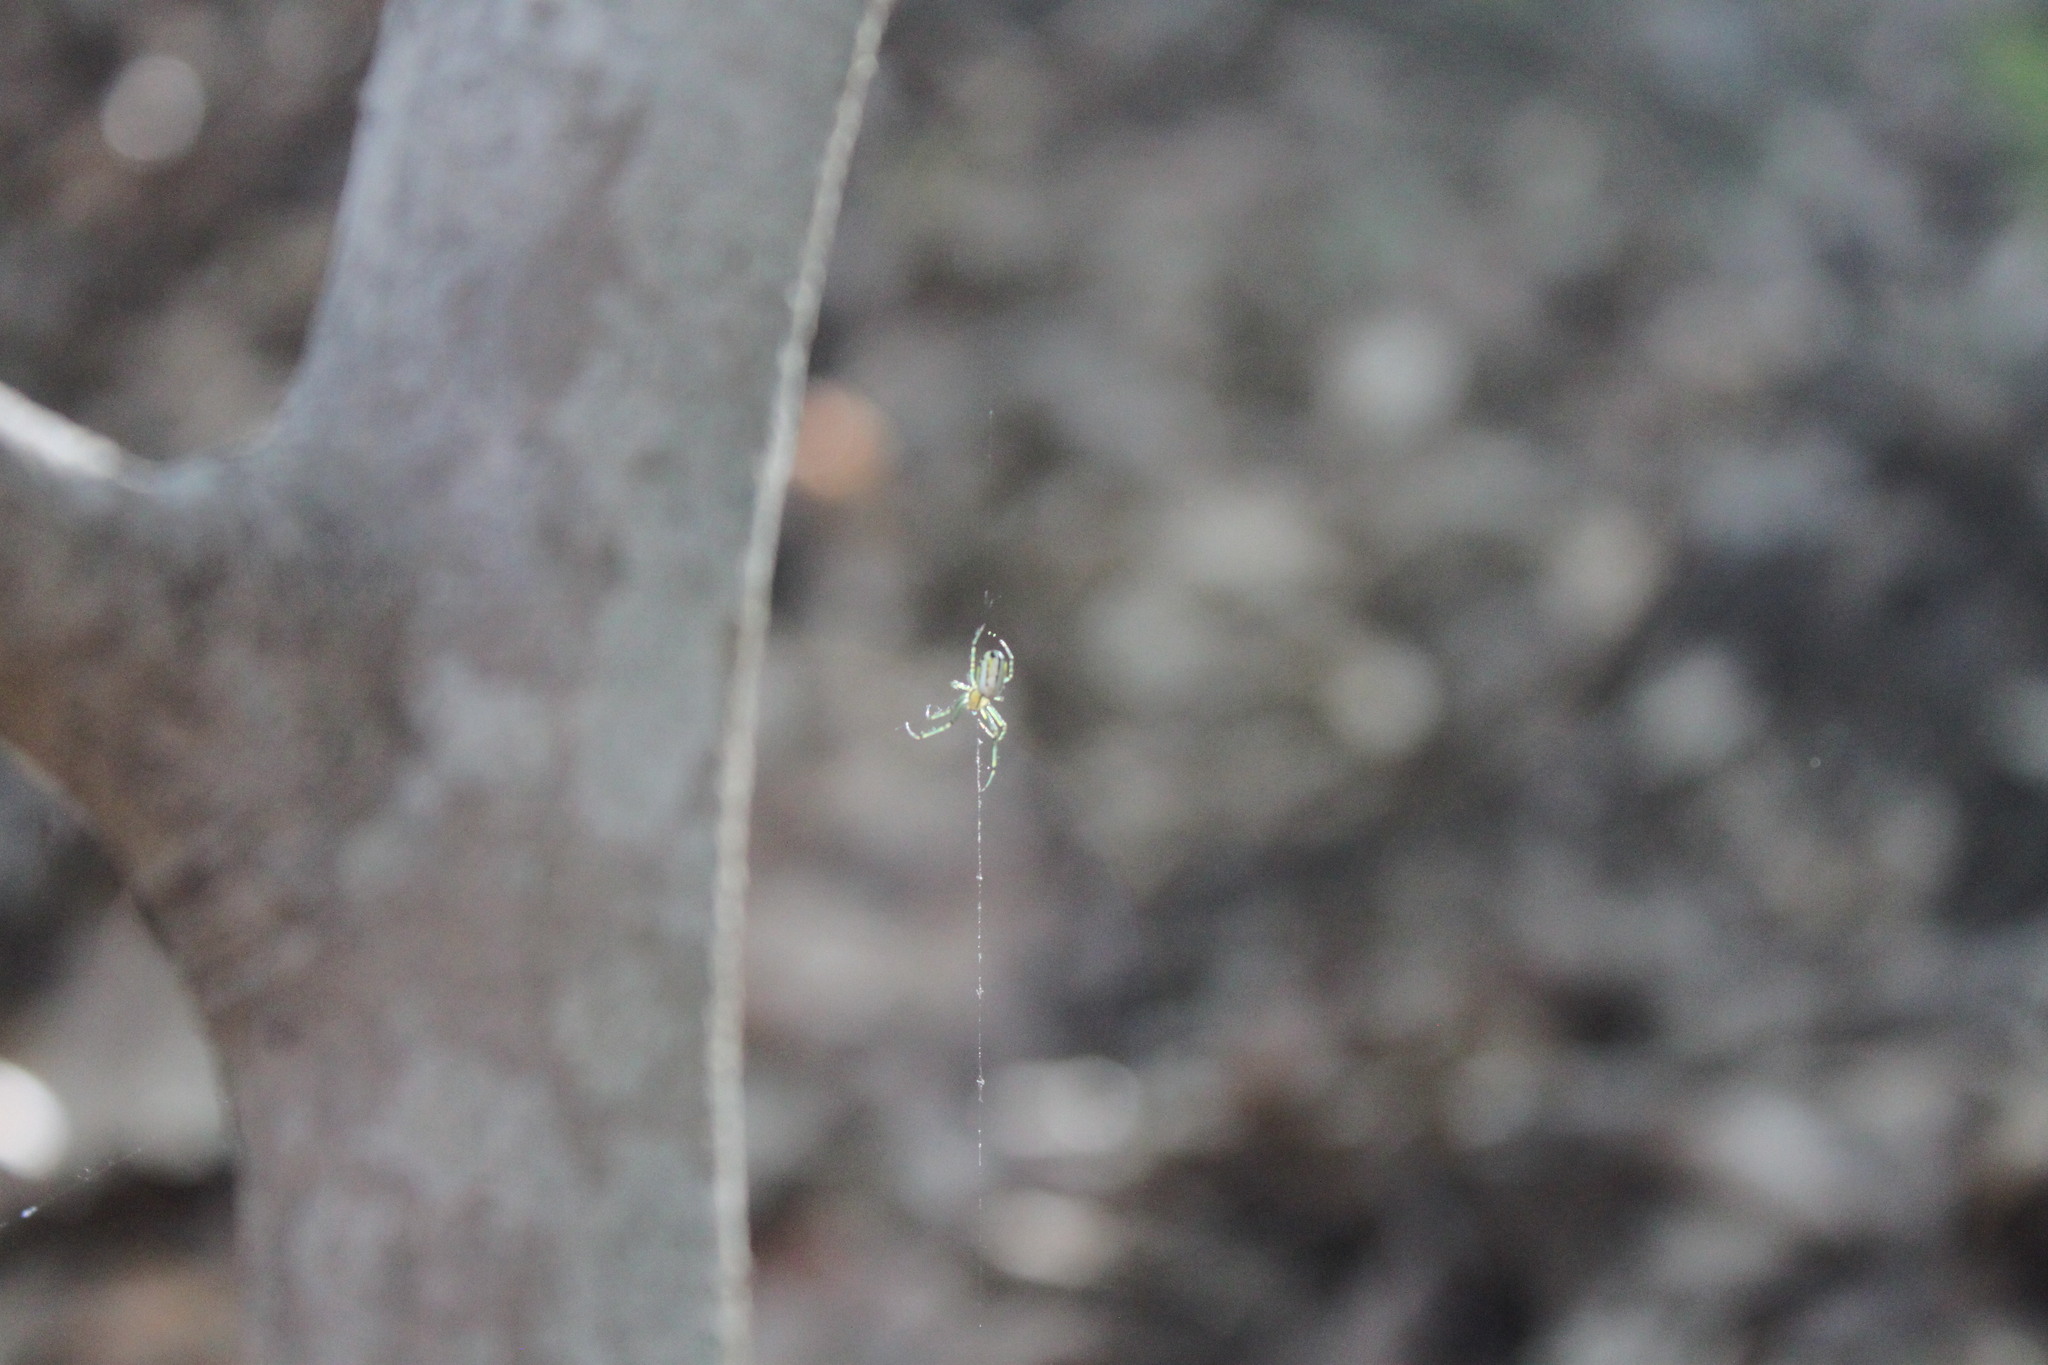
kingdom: Animalia
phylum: Arthropoda
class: Arachnida
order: Araneae
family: Tetragnathidae
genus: Leucauge
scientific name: Leucauge venusta
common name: Longjawed orb weavers
